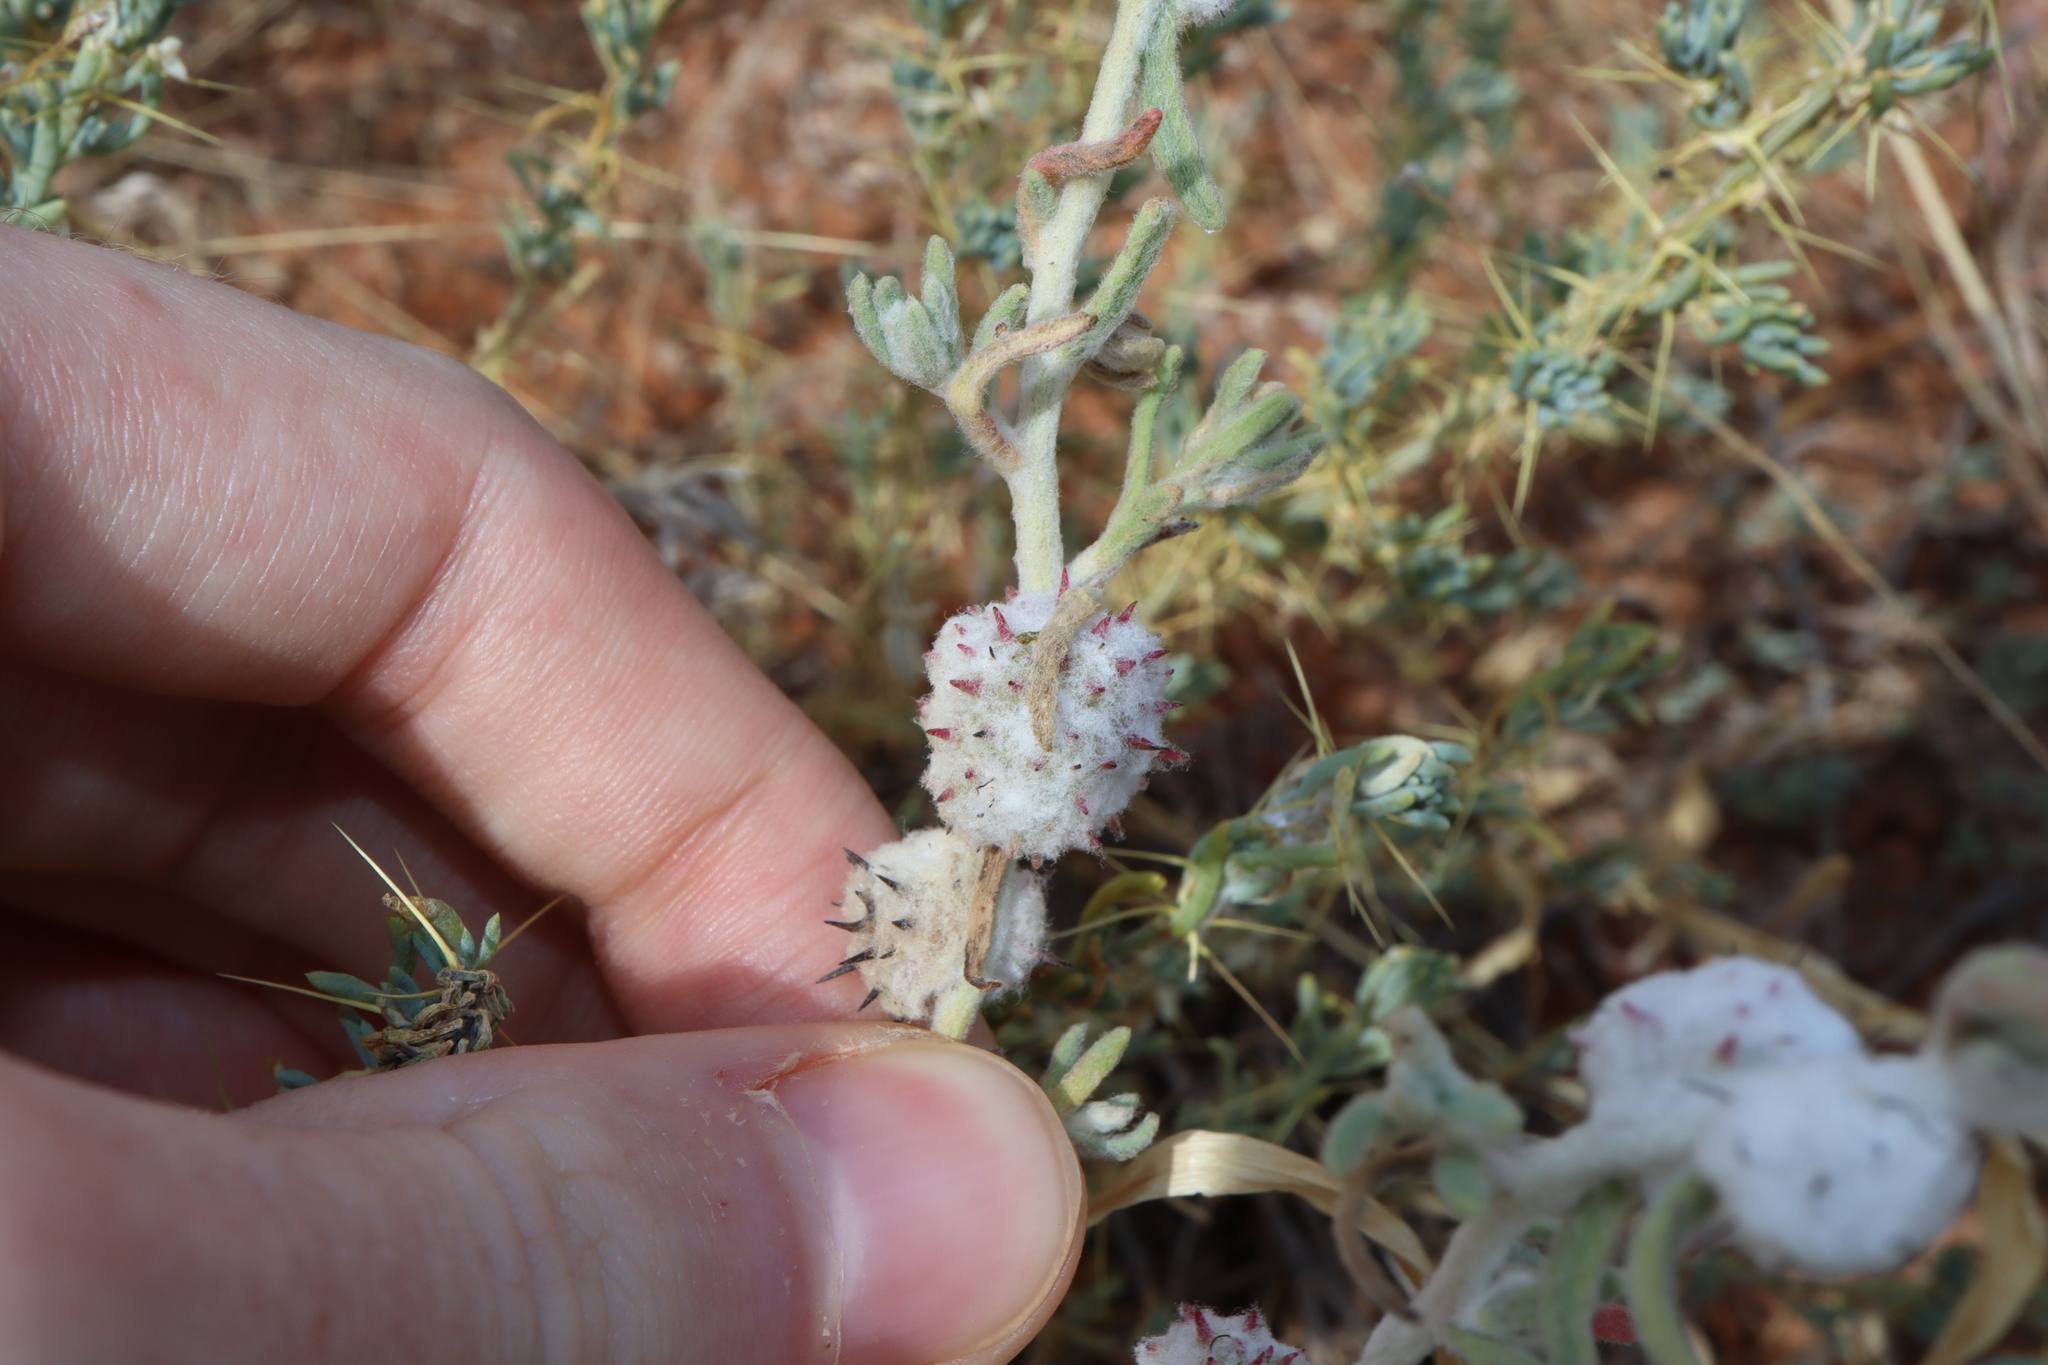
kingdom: Plantae
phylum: Tracheophyta
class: Magnoliopsida
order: Caryophyllales
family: Amaranthaceae
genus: Dissocarpus
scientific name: Dissocarpus paradoxus
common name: Bur-saltbush
